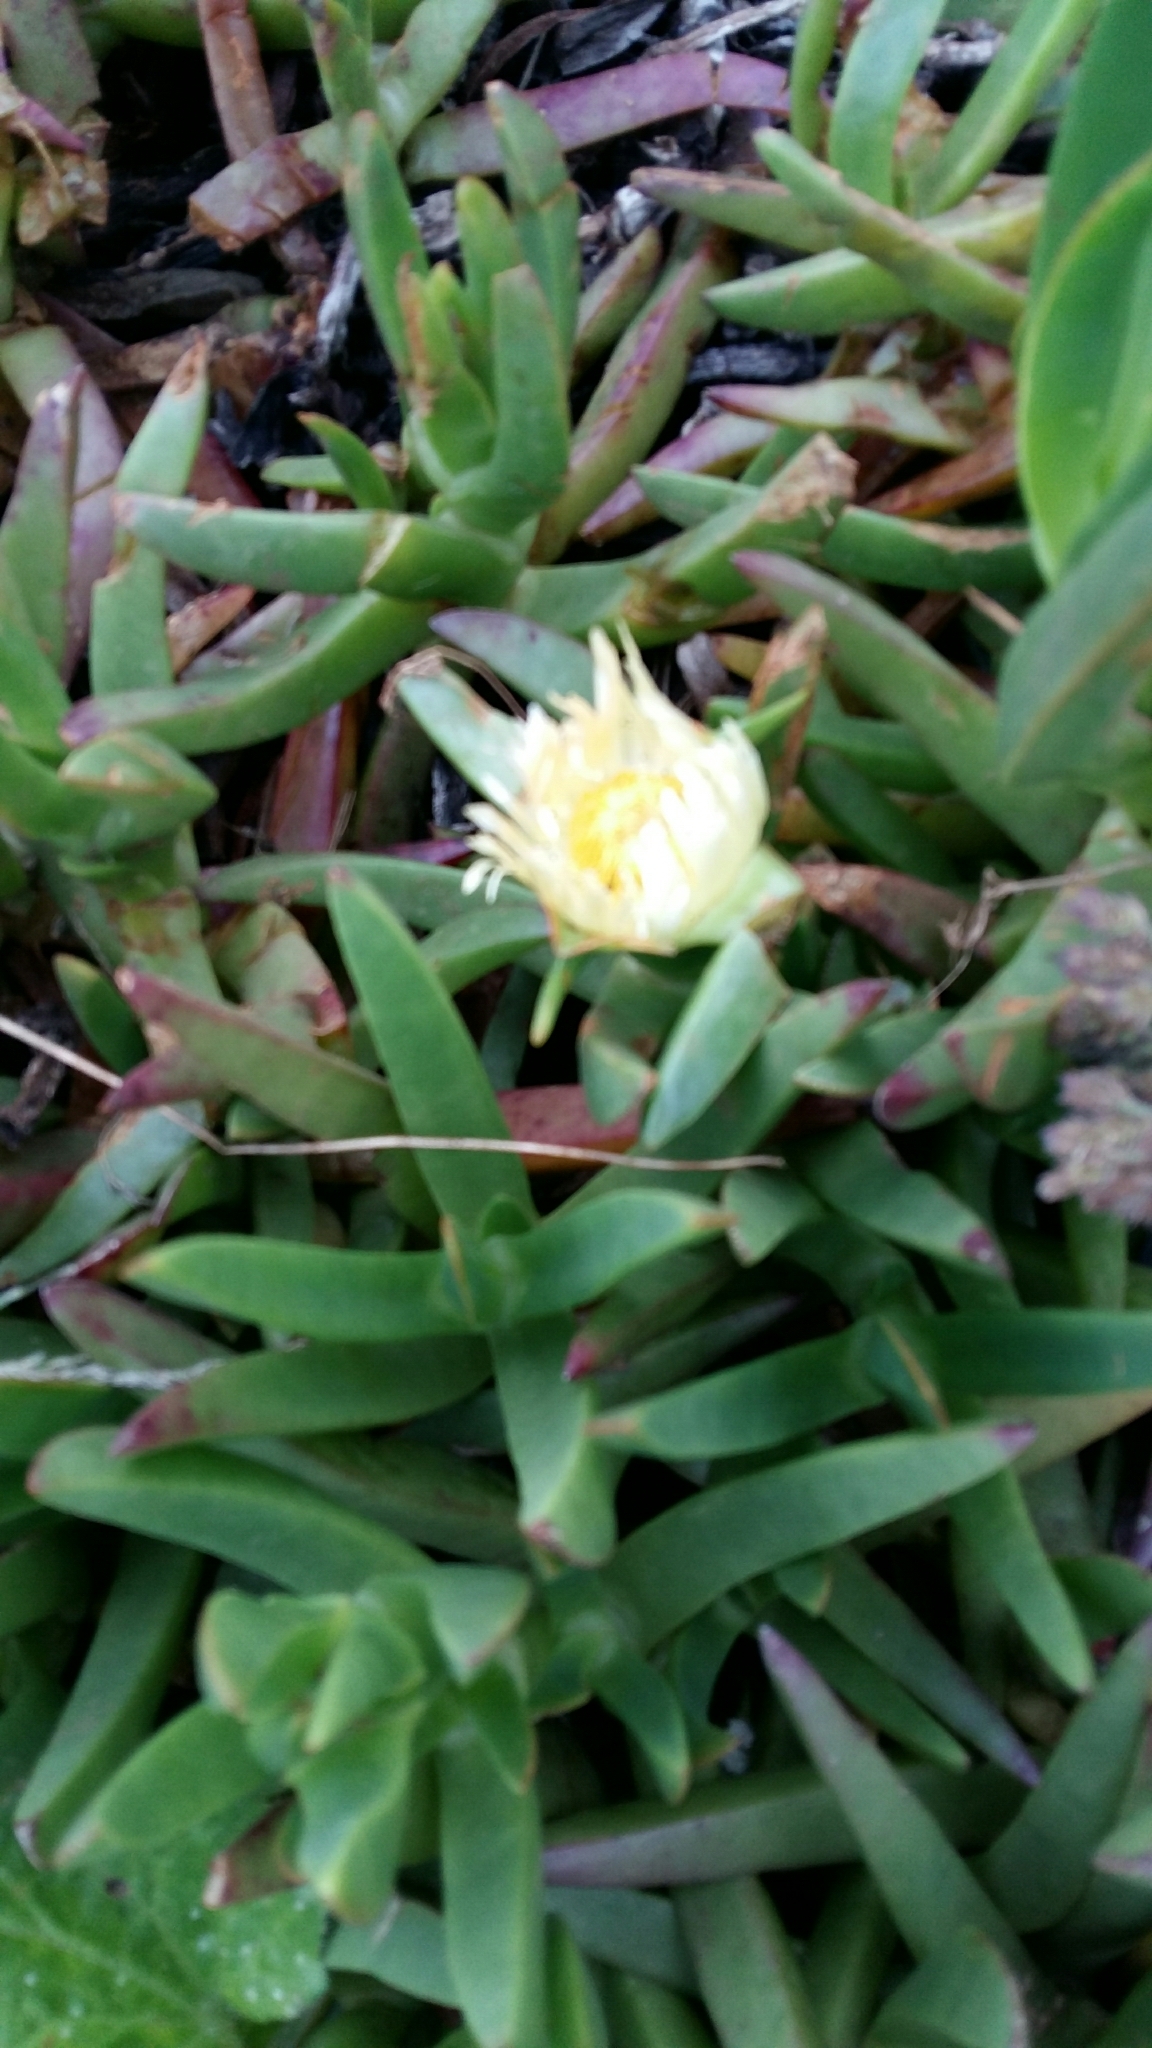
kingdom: Plantae
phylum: Tracheophyta
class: Magnoliopsida
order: Caryophyllales
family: Aizoaceae
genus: Carpobrotus
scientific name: Carpobrotus edulis
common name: Hottentot-fig
